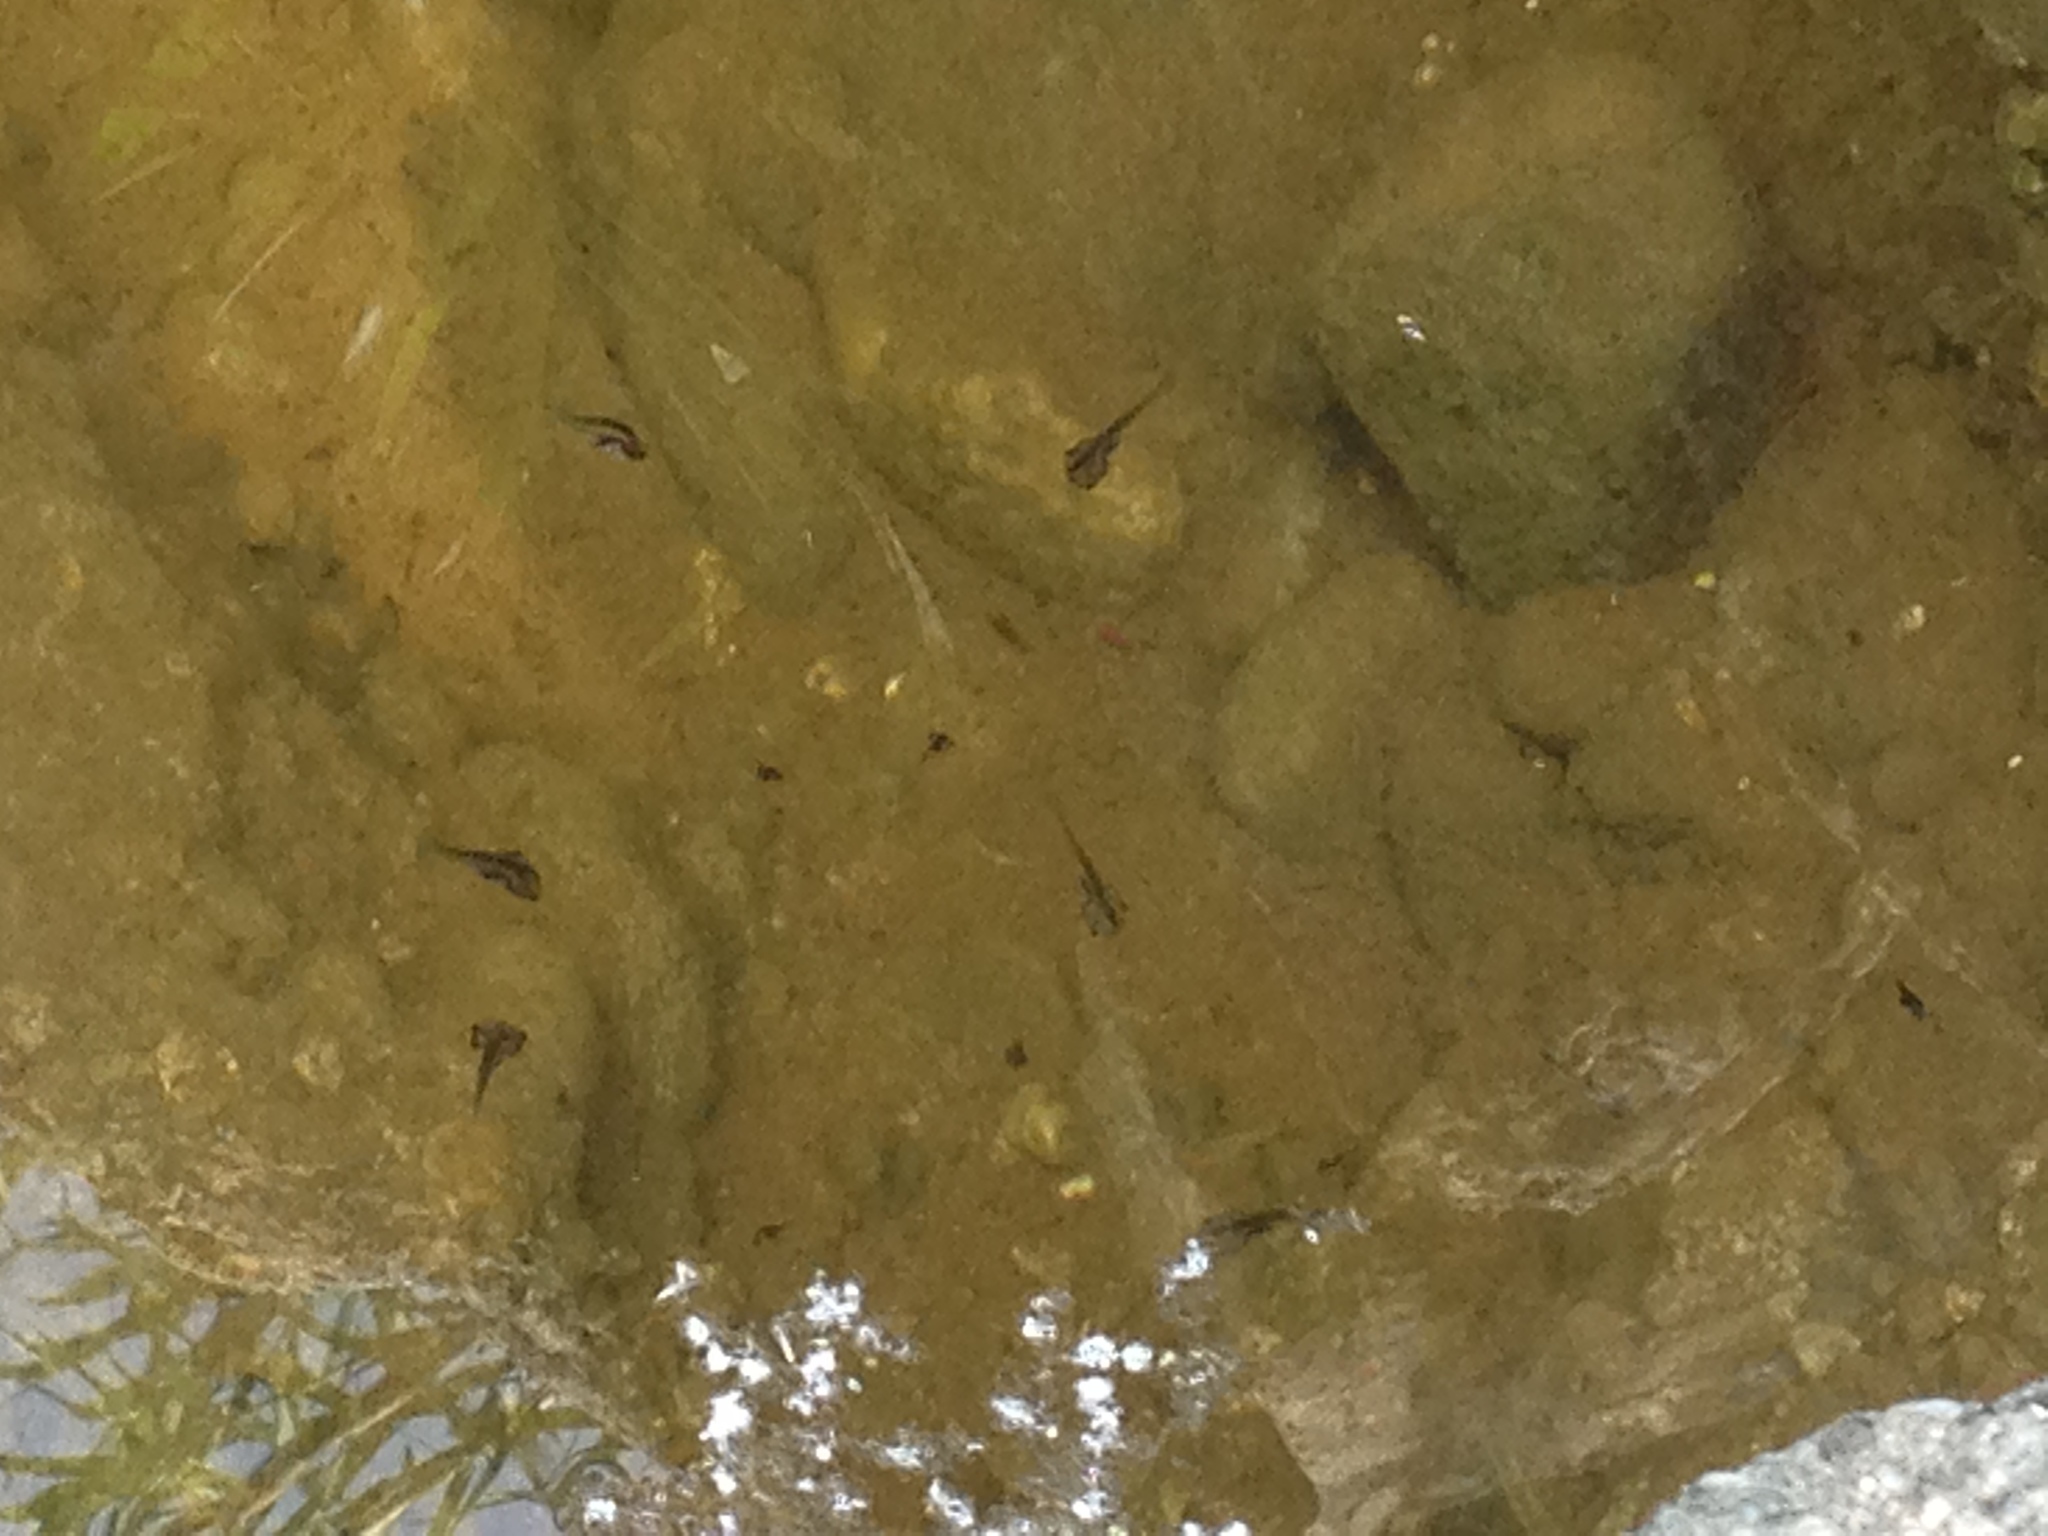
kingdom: Animalia
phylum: Chordata
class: Amphibia
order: Anura
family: Pipidae
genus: Xenopus
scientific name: Xenopus laevis
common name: African clawed frog
